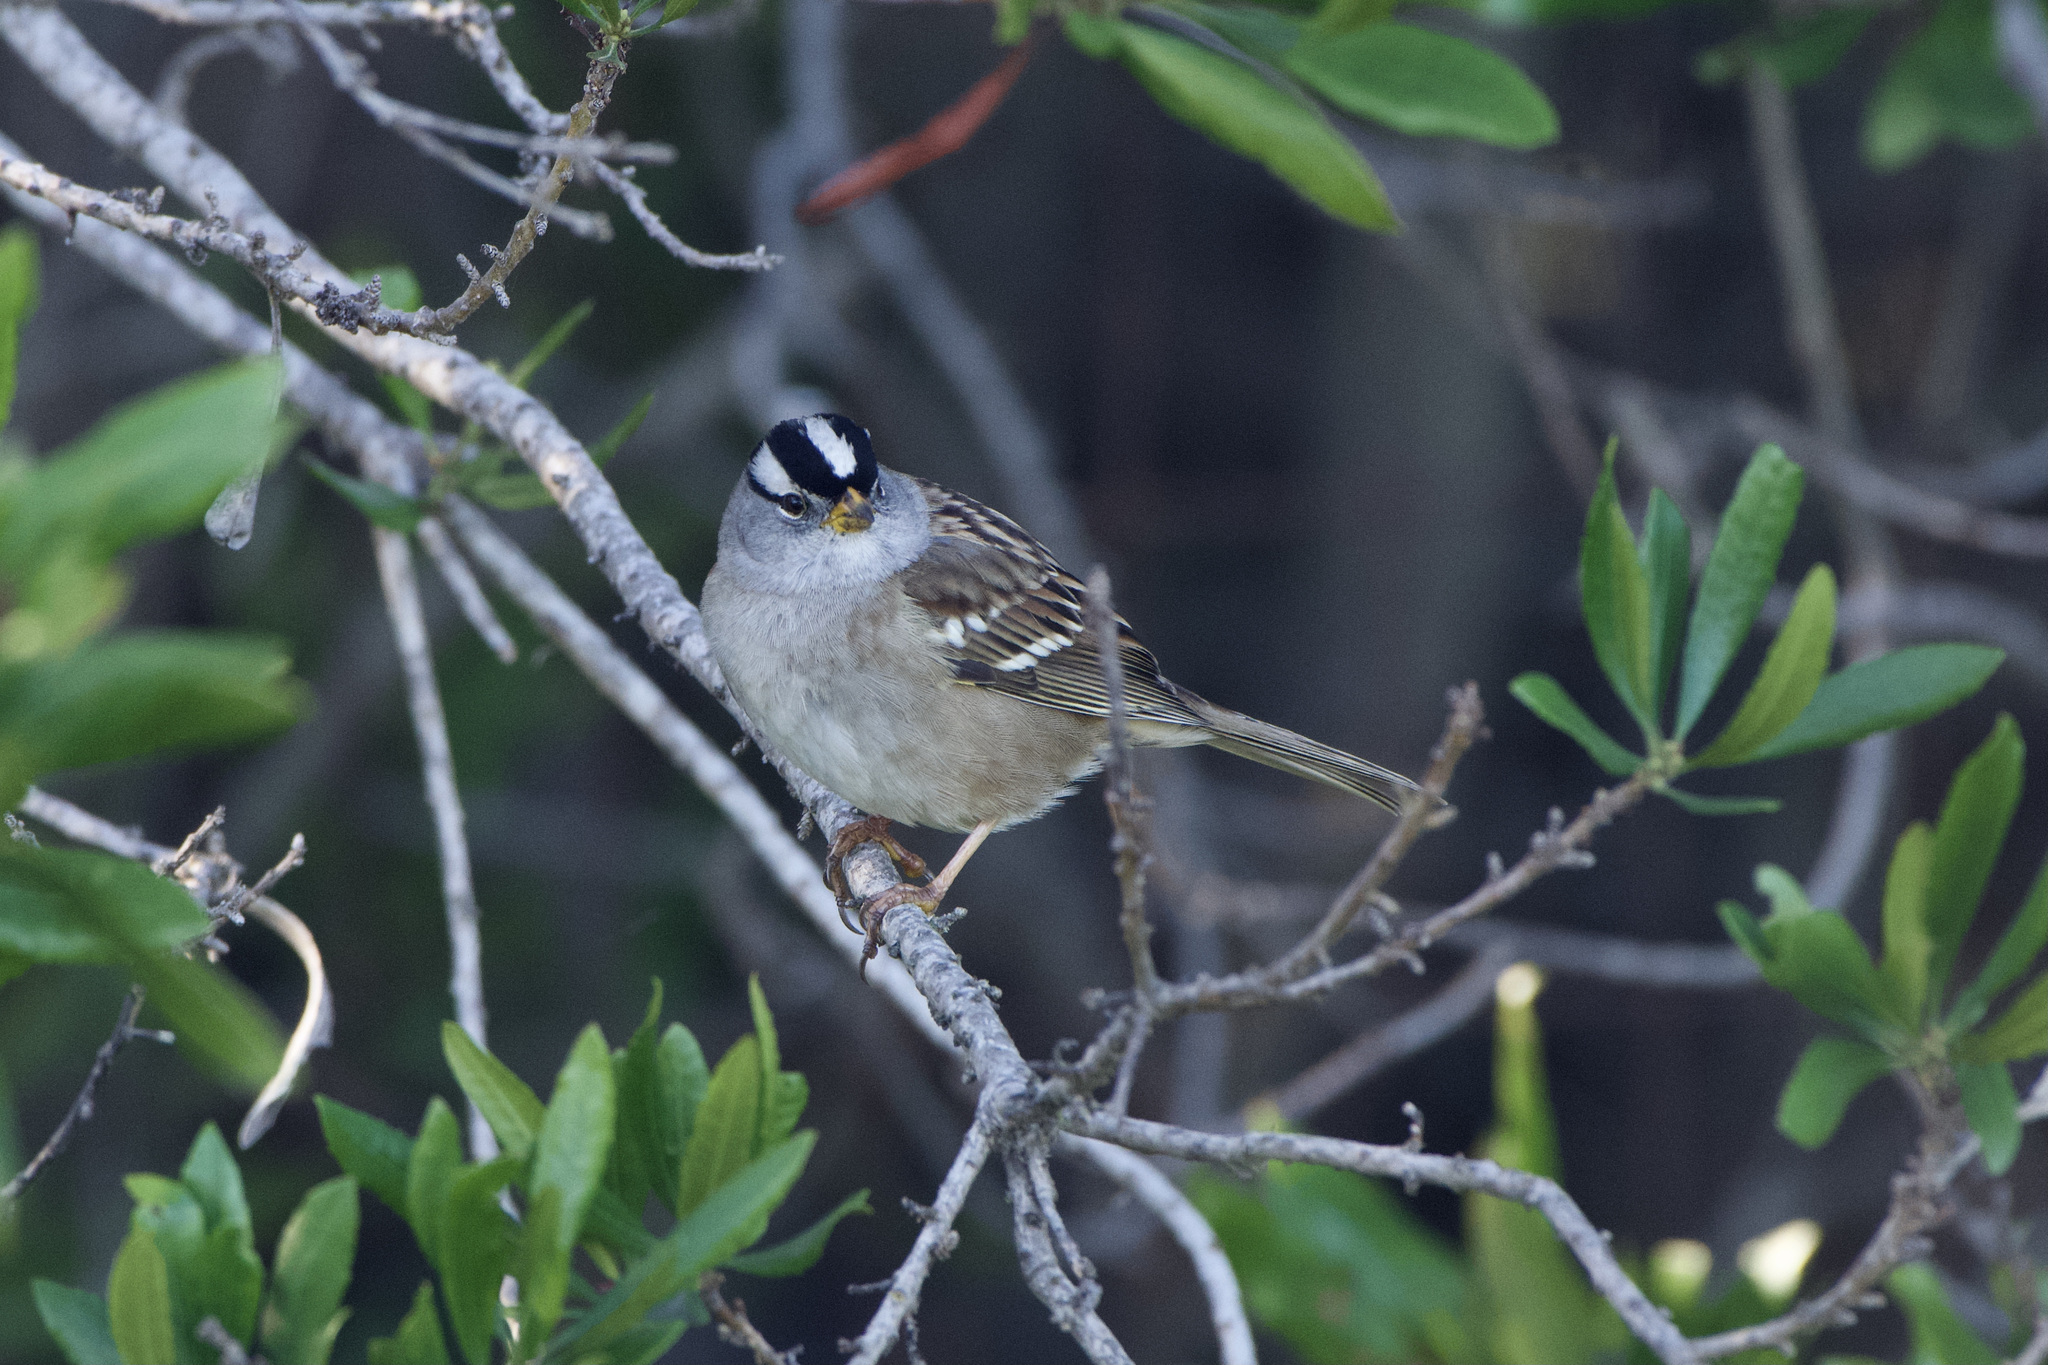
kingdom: Animalia
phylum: Chordata
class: Aves
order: Passeriformes
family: Passerellidae
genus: Zonotrichia
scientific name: Zonotrichia leucophrys
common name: White-crowned sparrow
